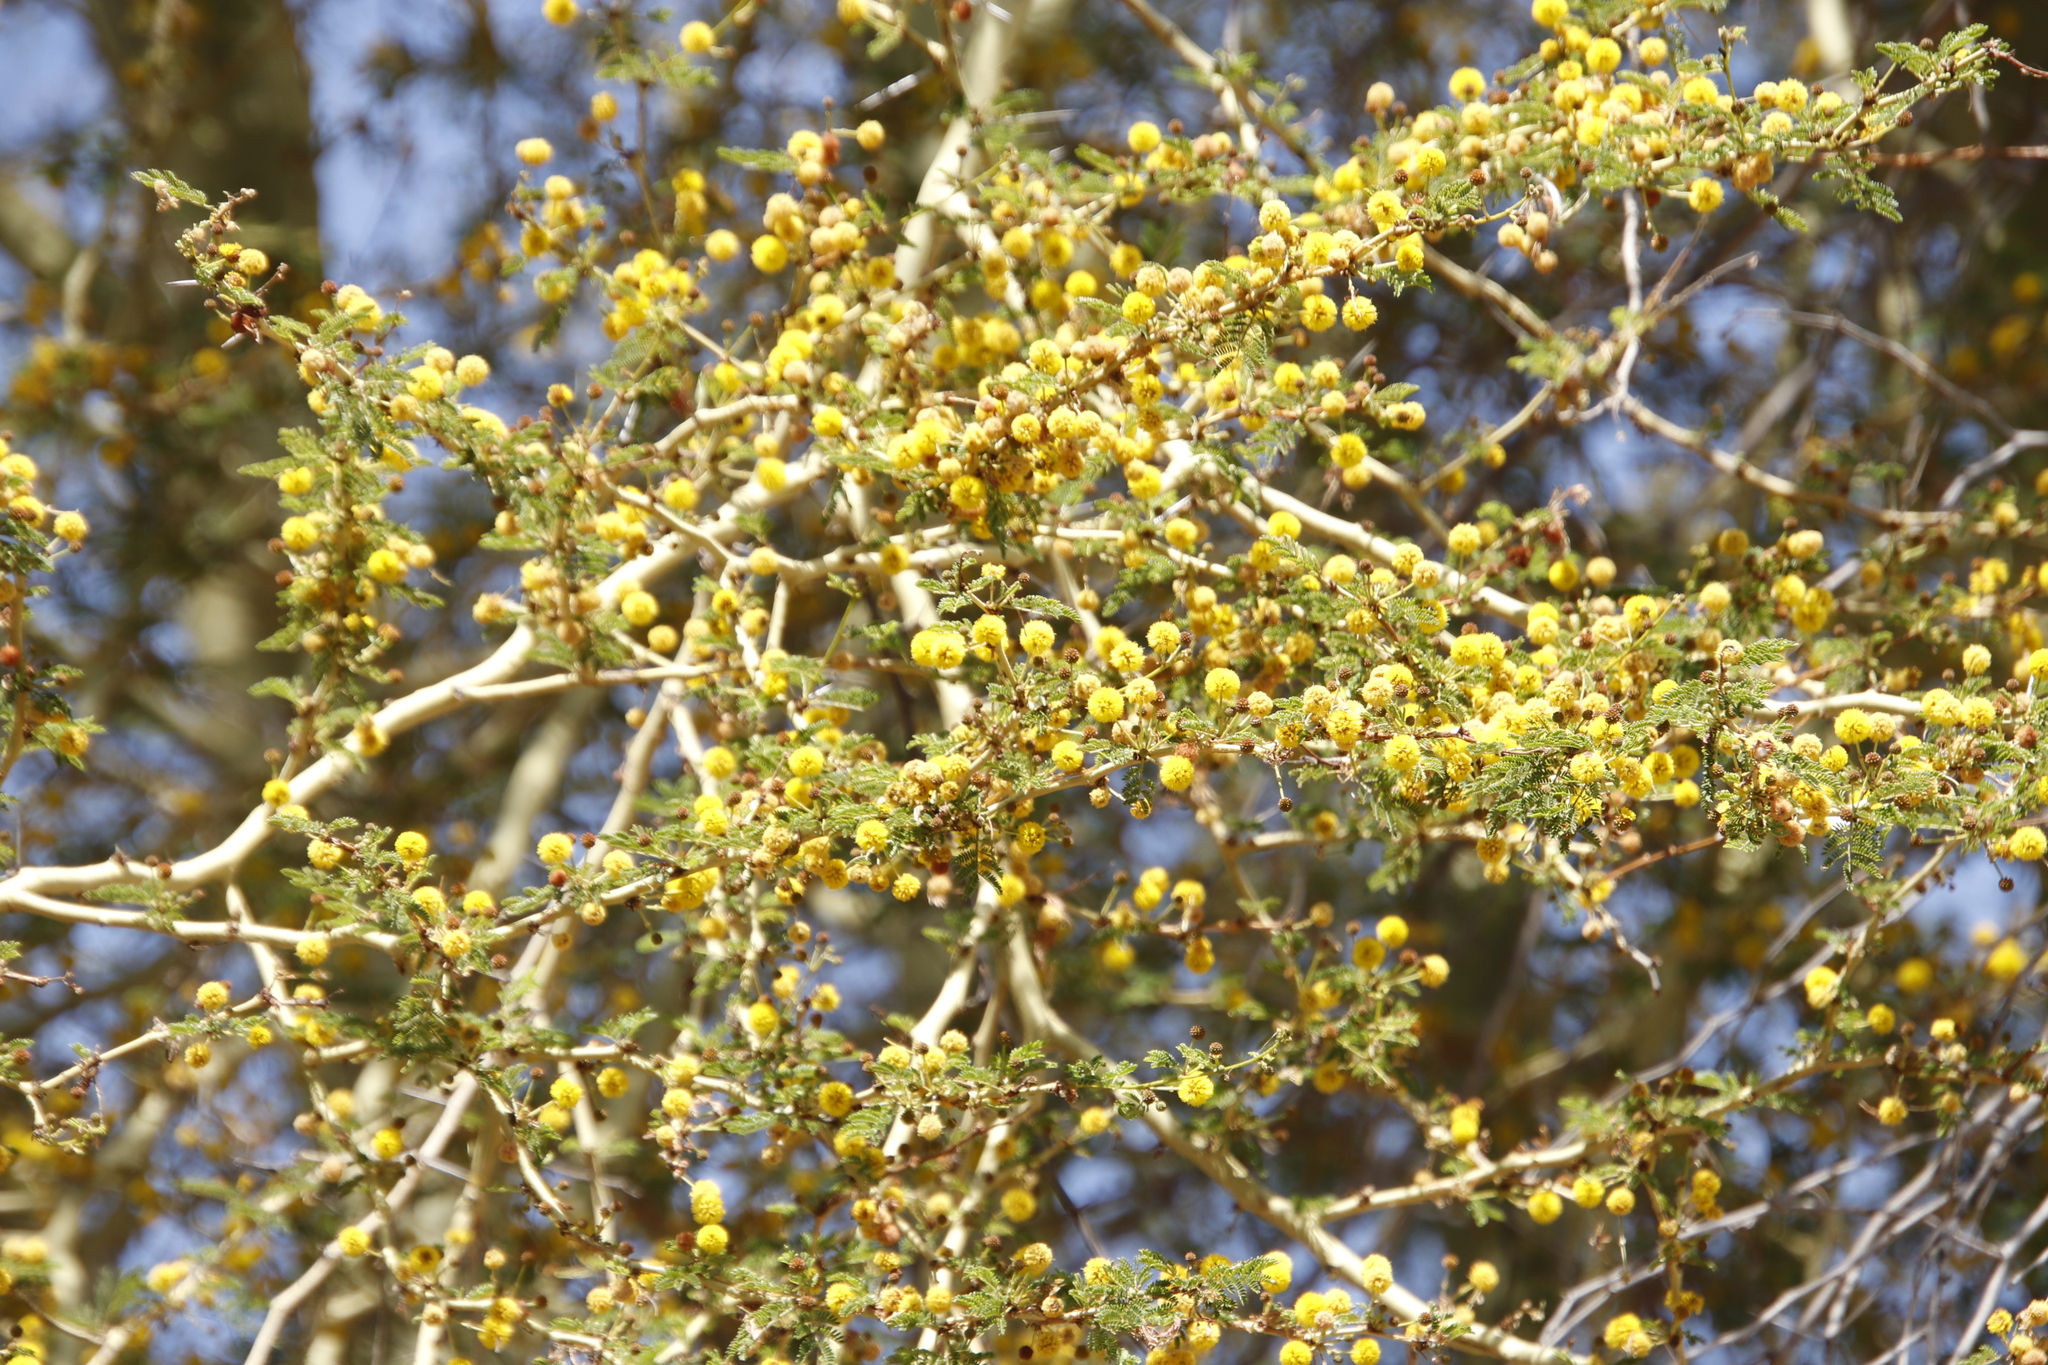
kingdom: Plantae
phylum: Tracheophyta
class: Magnoliopsida
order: Fabales
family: Fabaceae
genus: Vachellia
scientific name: Vachellia xanthophloea
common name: Fever tree
